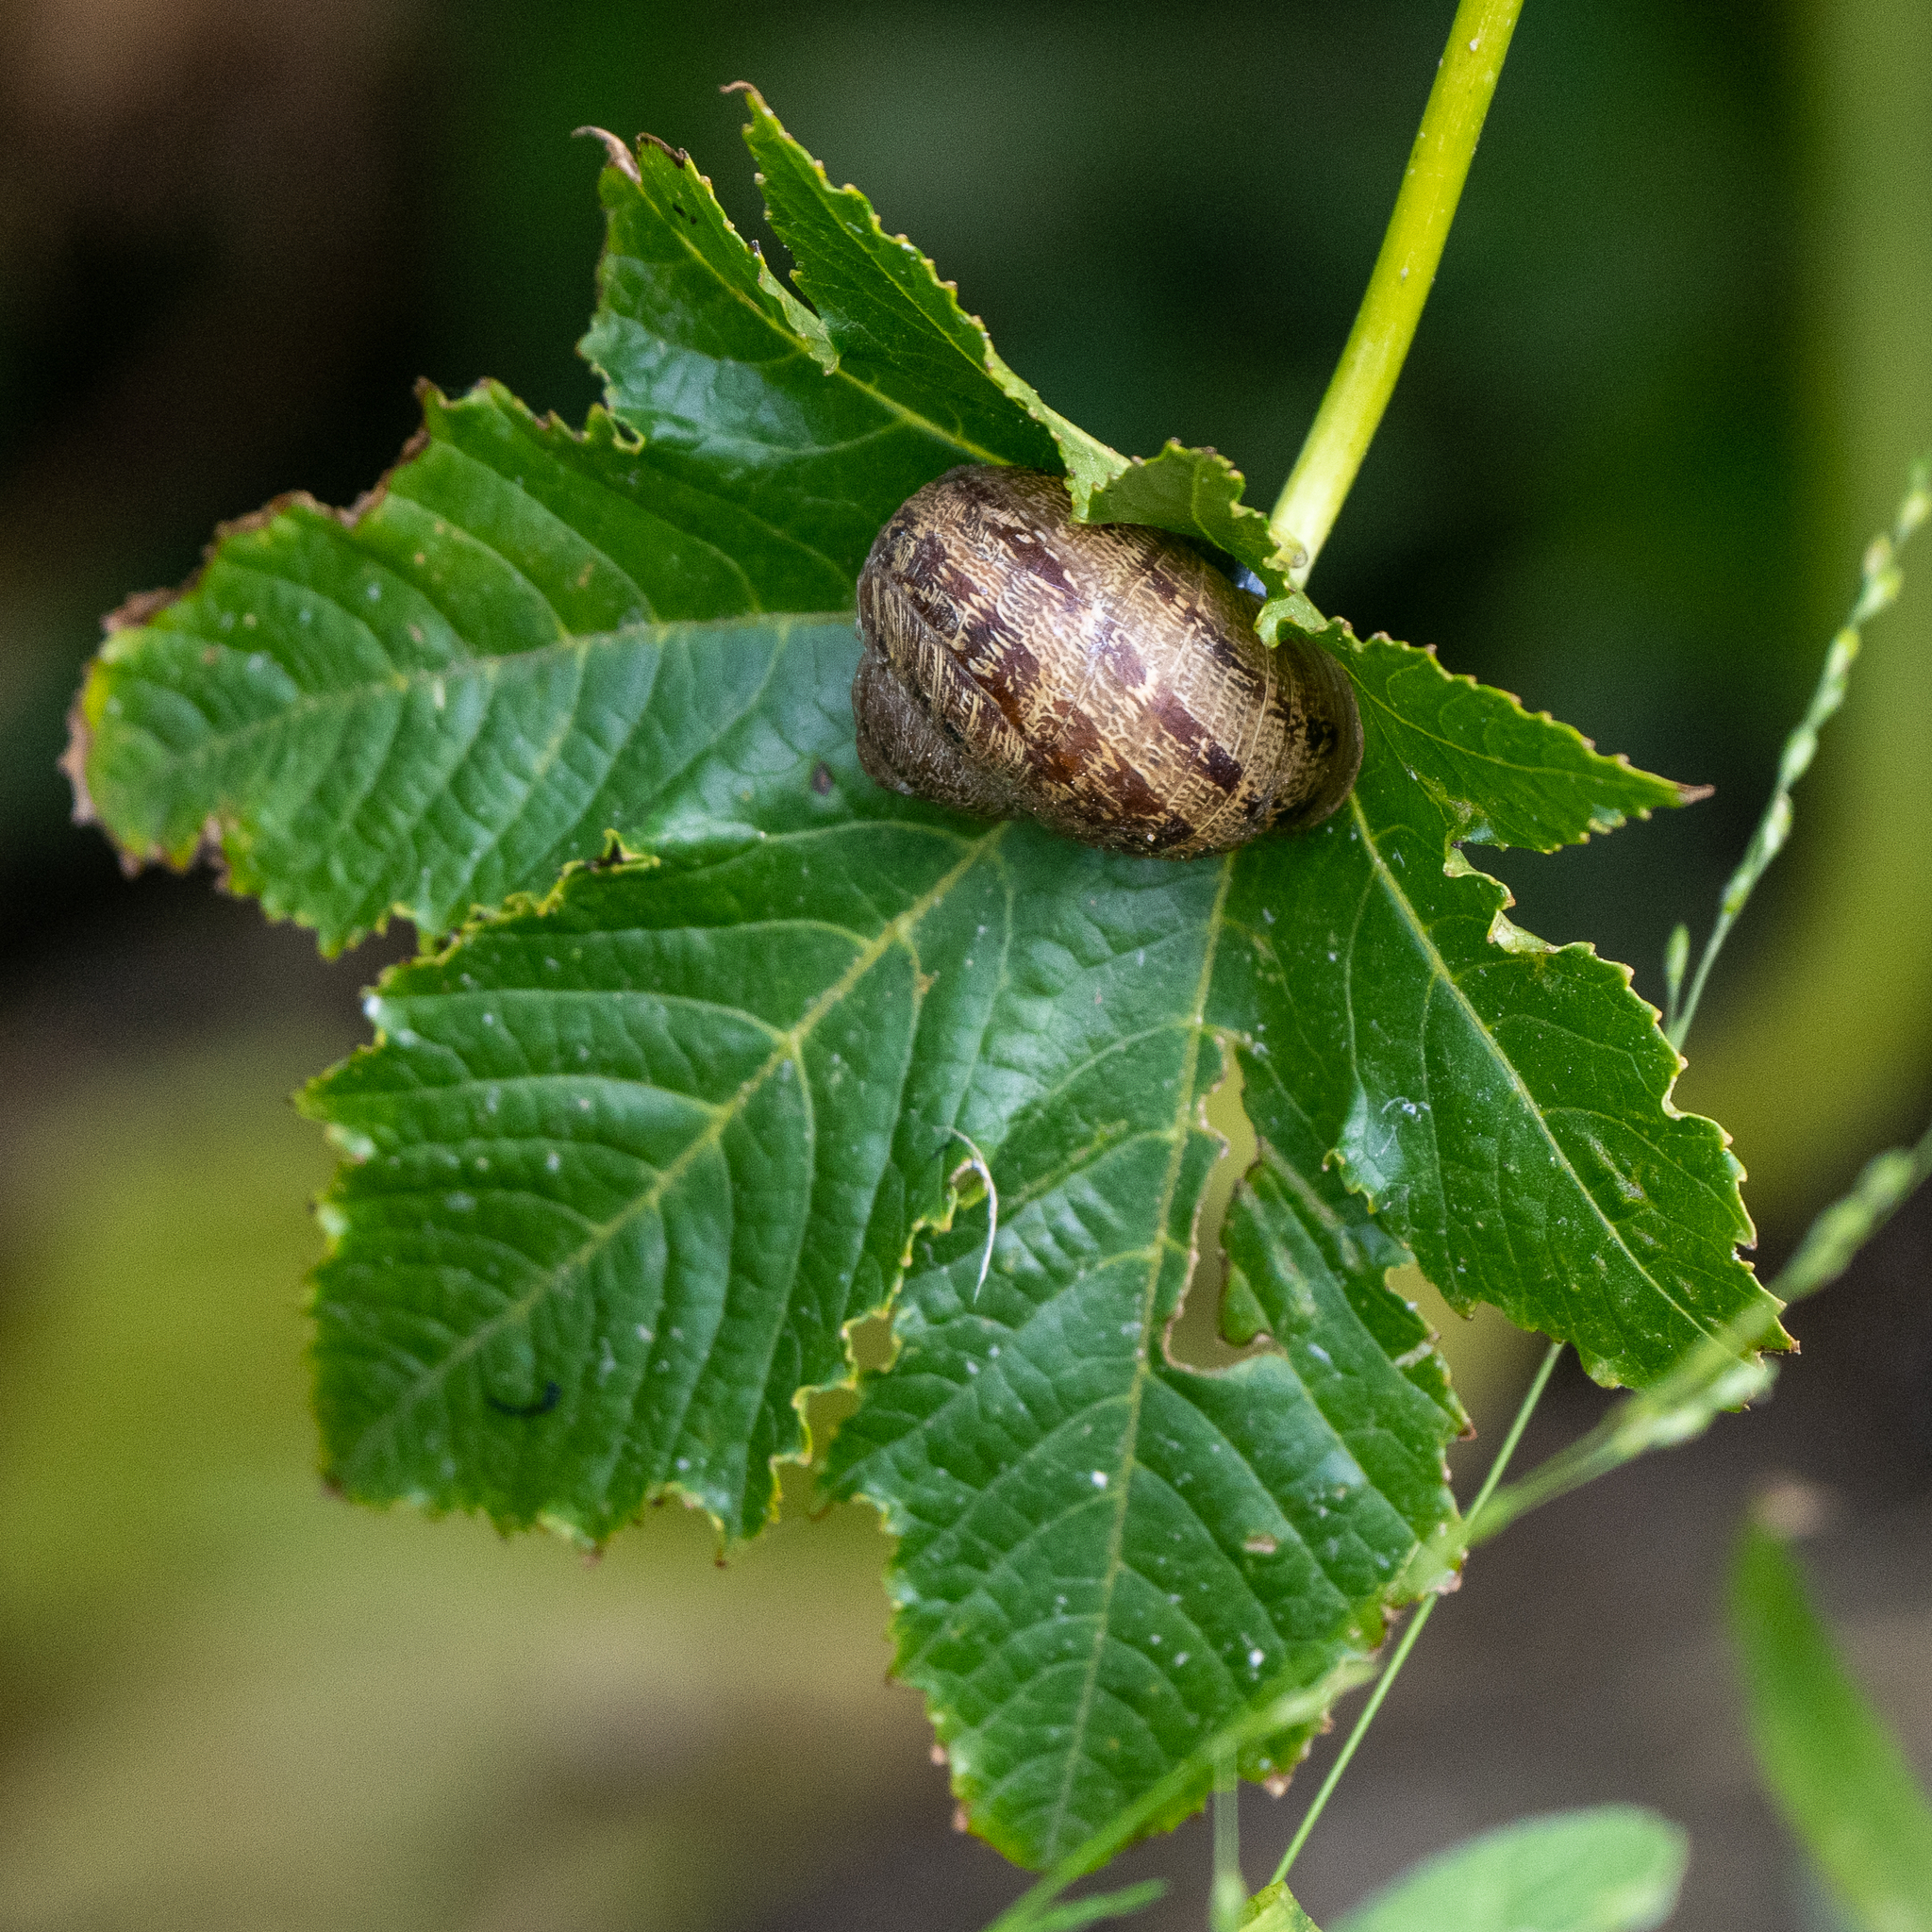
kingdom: Animalia
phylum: Mollusca
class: Gastropoda
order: Stylommatophora
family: Helicidae
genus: Cornu
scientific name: Cornu aspersum
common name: Brown garden snail
